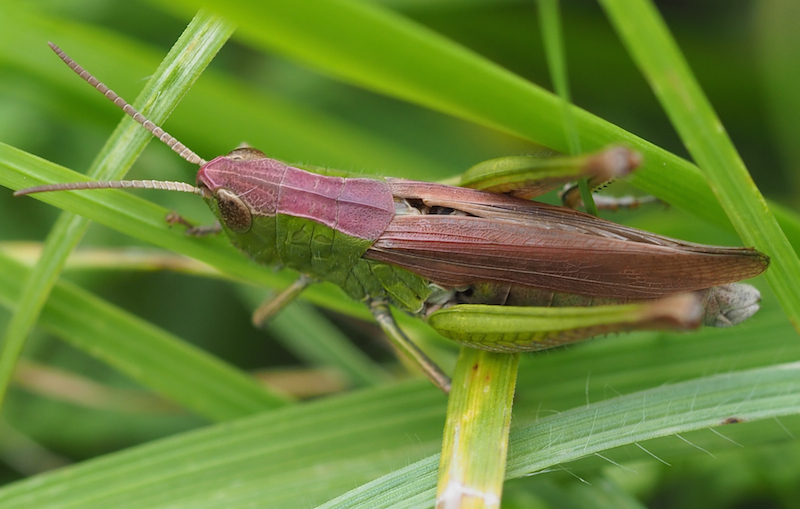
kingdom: Animalia
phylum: Arthropoda
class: Insecta
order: Orthoptera
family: Acrididae
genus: Chorthippus
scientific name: Chorthippus dorsatus
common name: Steppe grasshopper
